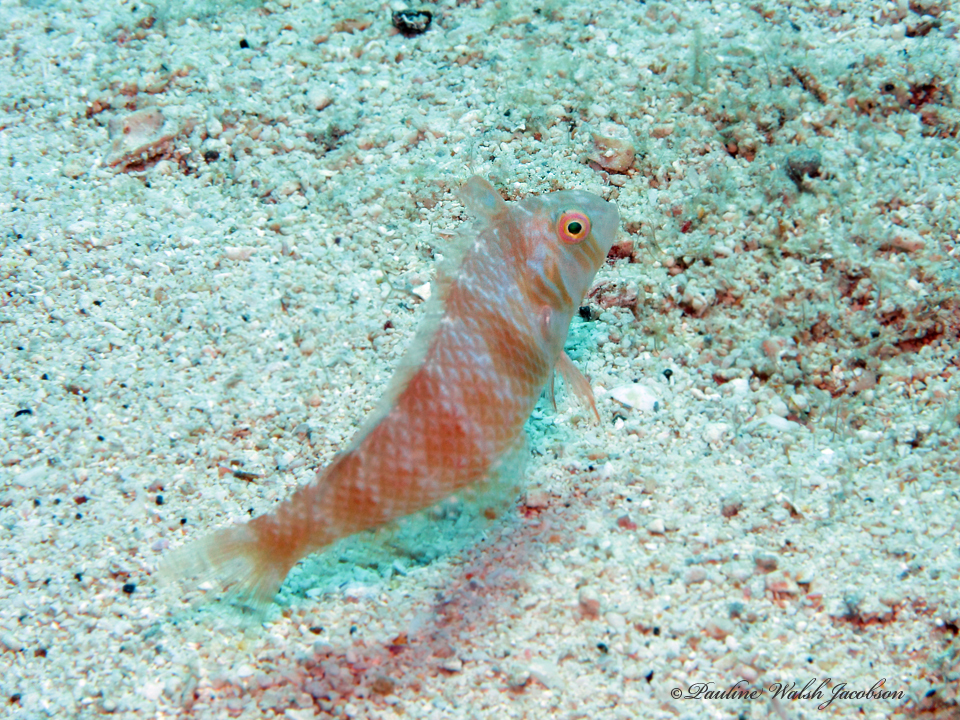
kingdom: Animalia
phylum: Chordata
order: Perciformes
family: Labridae
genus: Xyrichtys
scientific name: Xyrichtys splendens
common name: Green razorfish
